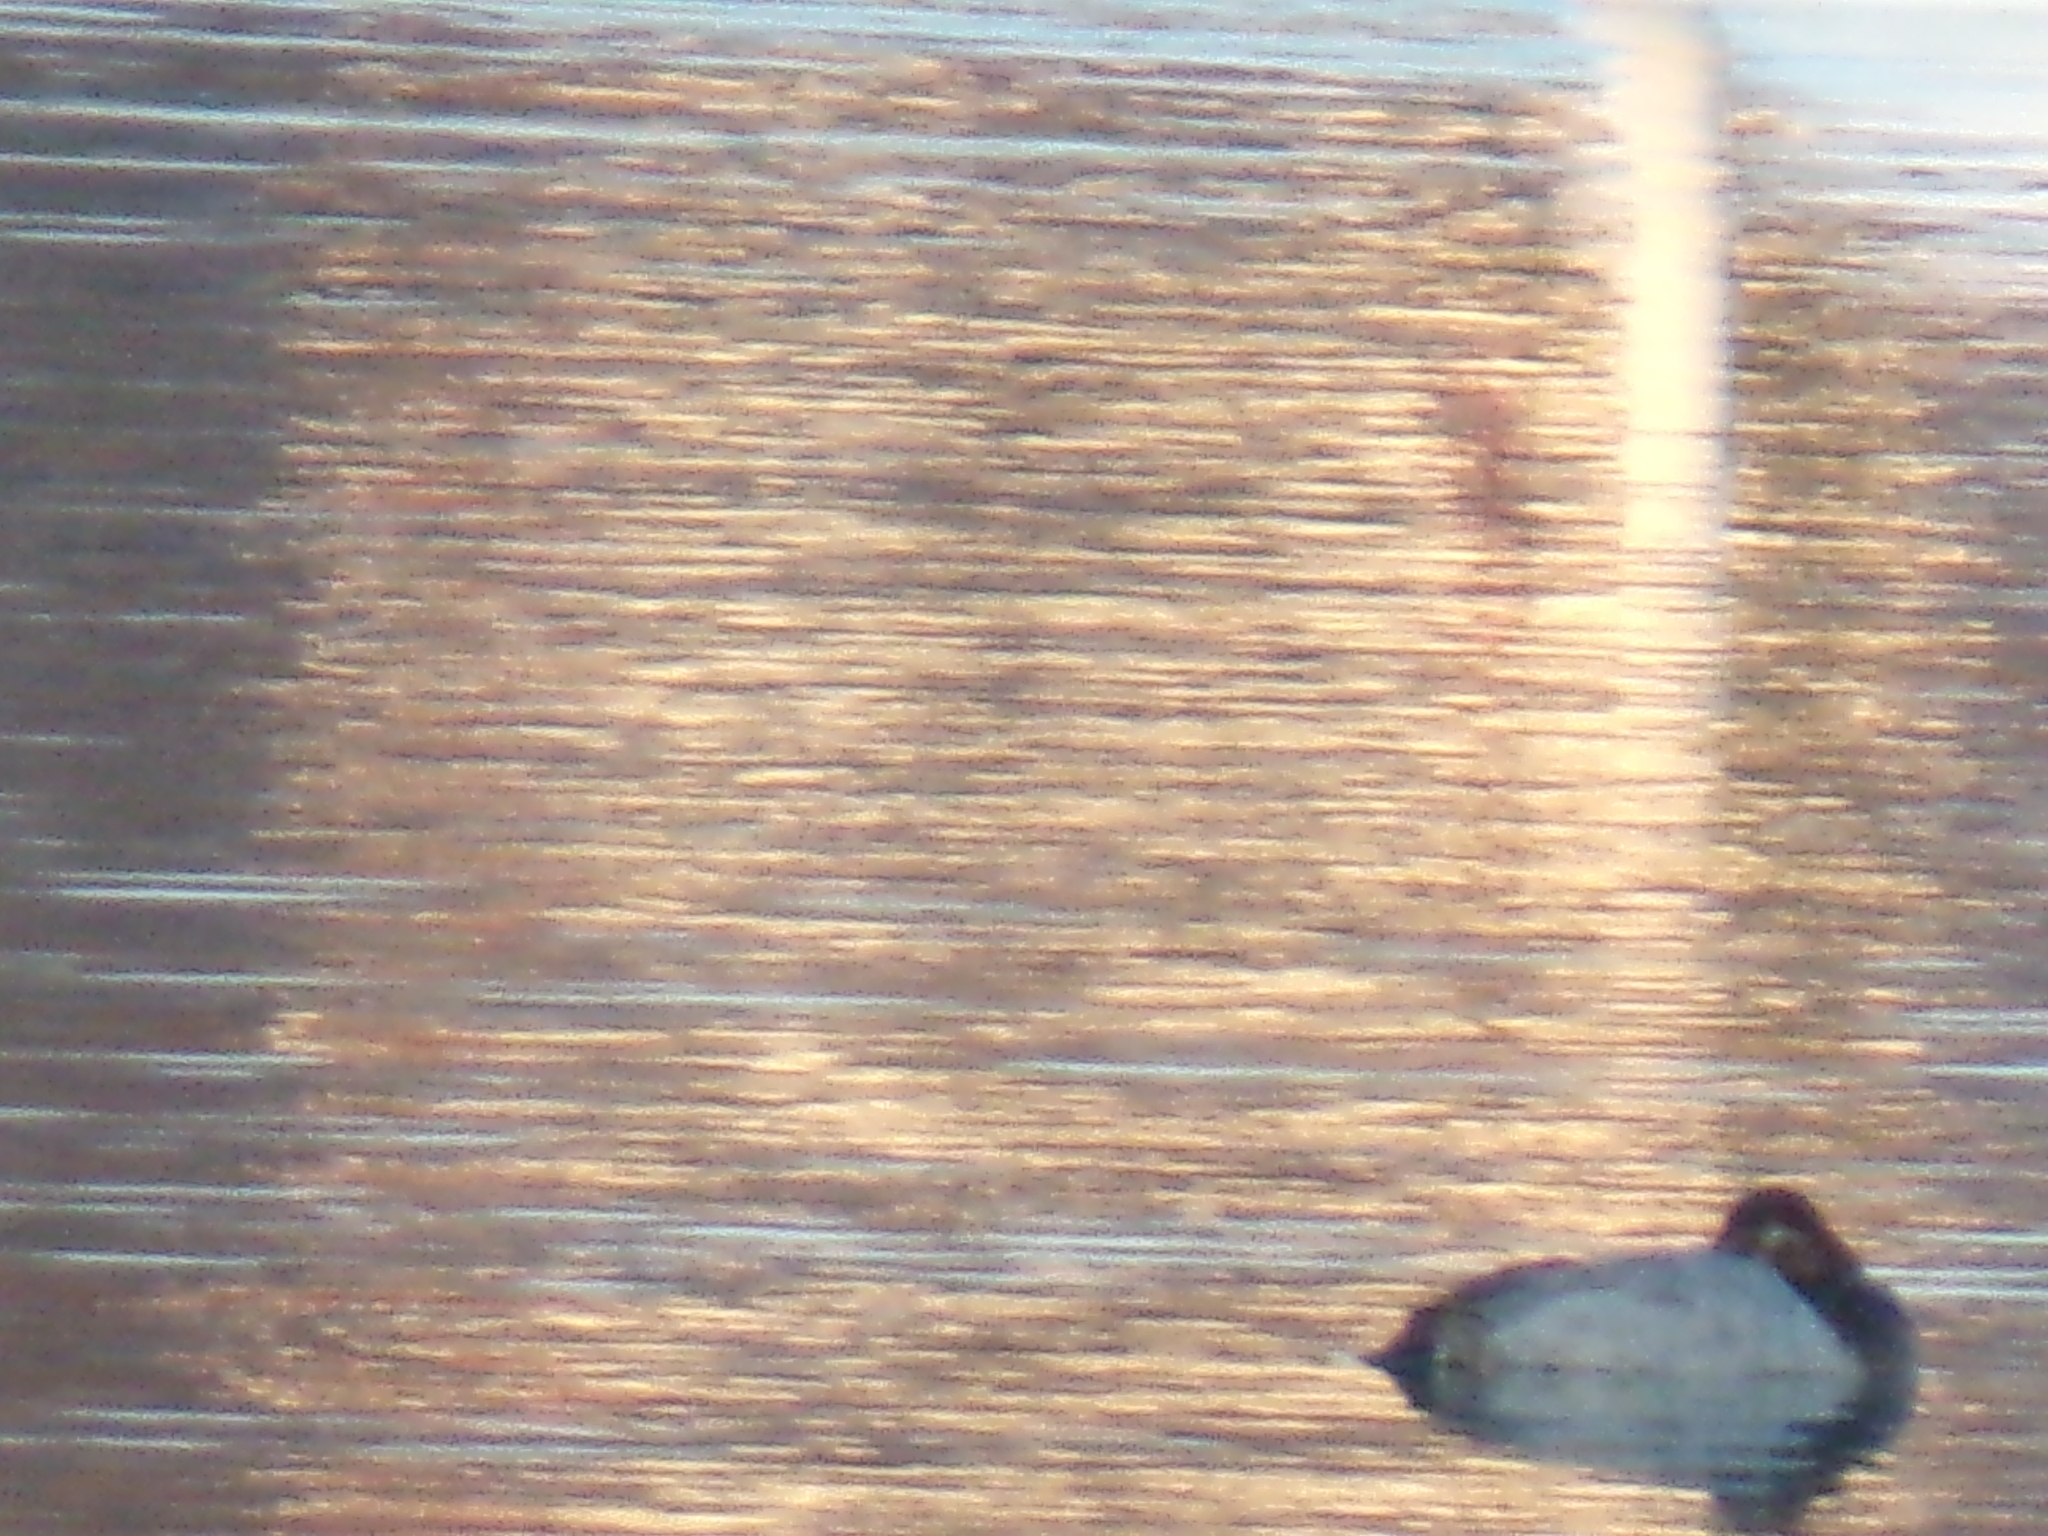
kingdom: Animalia
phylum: Chordata
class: Aves
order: Anseriformes
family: Anatidae
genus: Aythya
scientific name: Aythya americana
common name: Redhead
